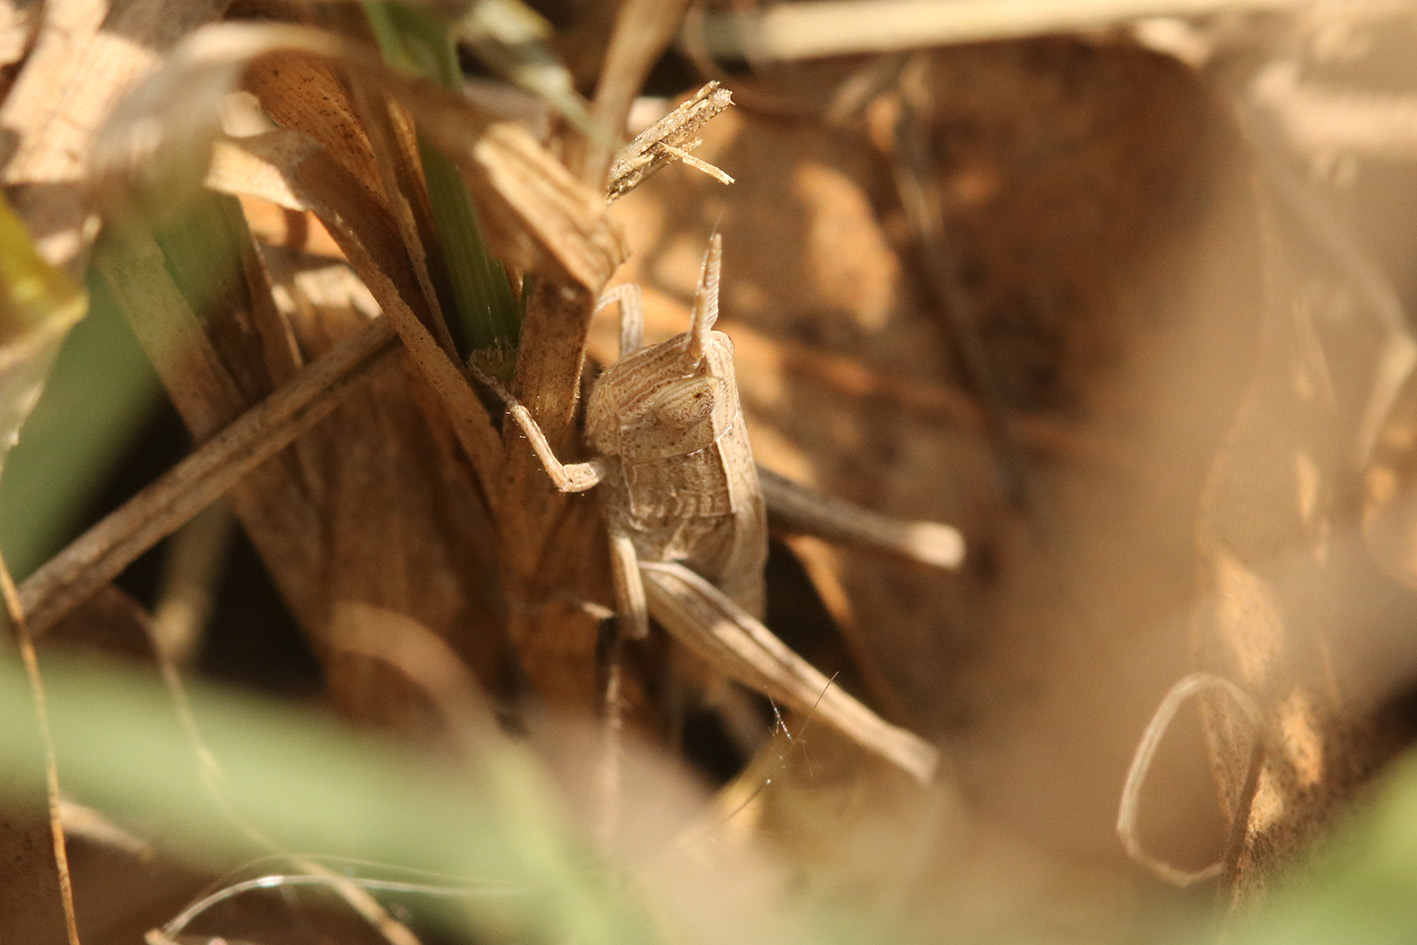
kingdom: Animalia
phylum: Arthropoda
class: Insecta
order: Orthoptera
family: Acrididae
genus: Laplatacris
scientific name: Laplatacris dispar
